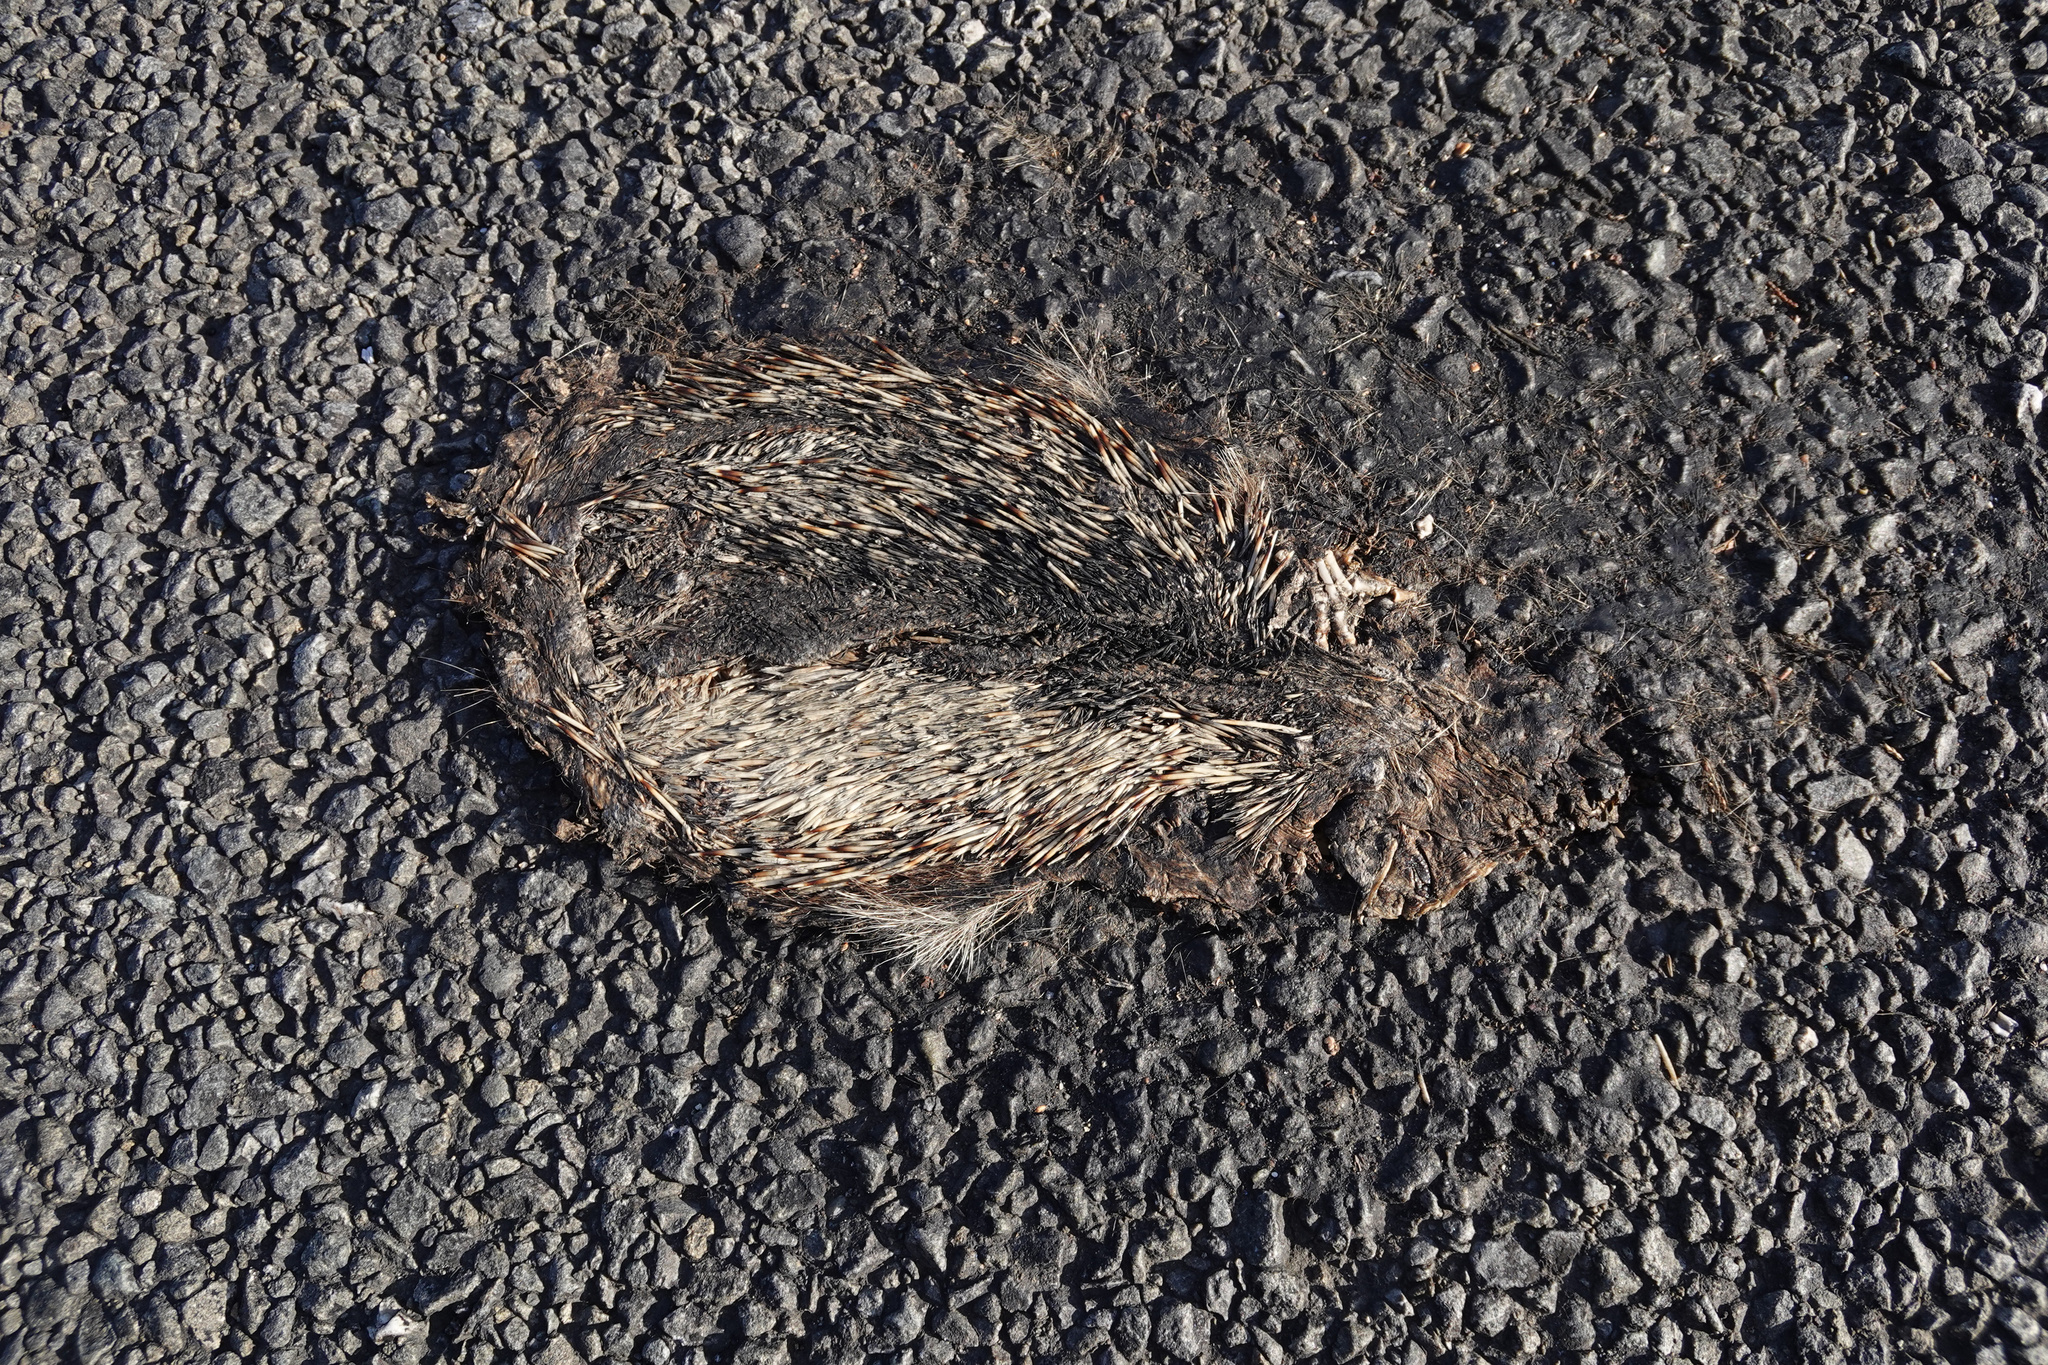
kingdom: Animalia
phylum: Chordata
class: Mammalia
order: Erinaceomorpha
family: Erinaceidae
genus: Erinaceus
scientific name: Erinaceus europaeus
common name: West european hedgehog
